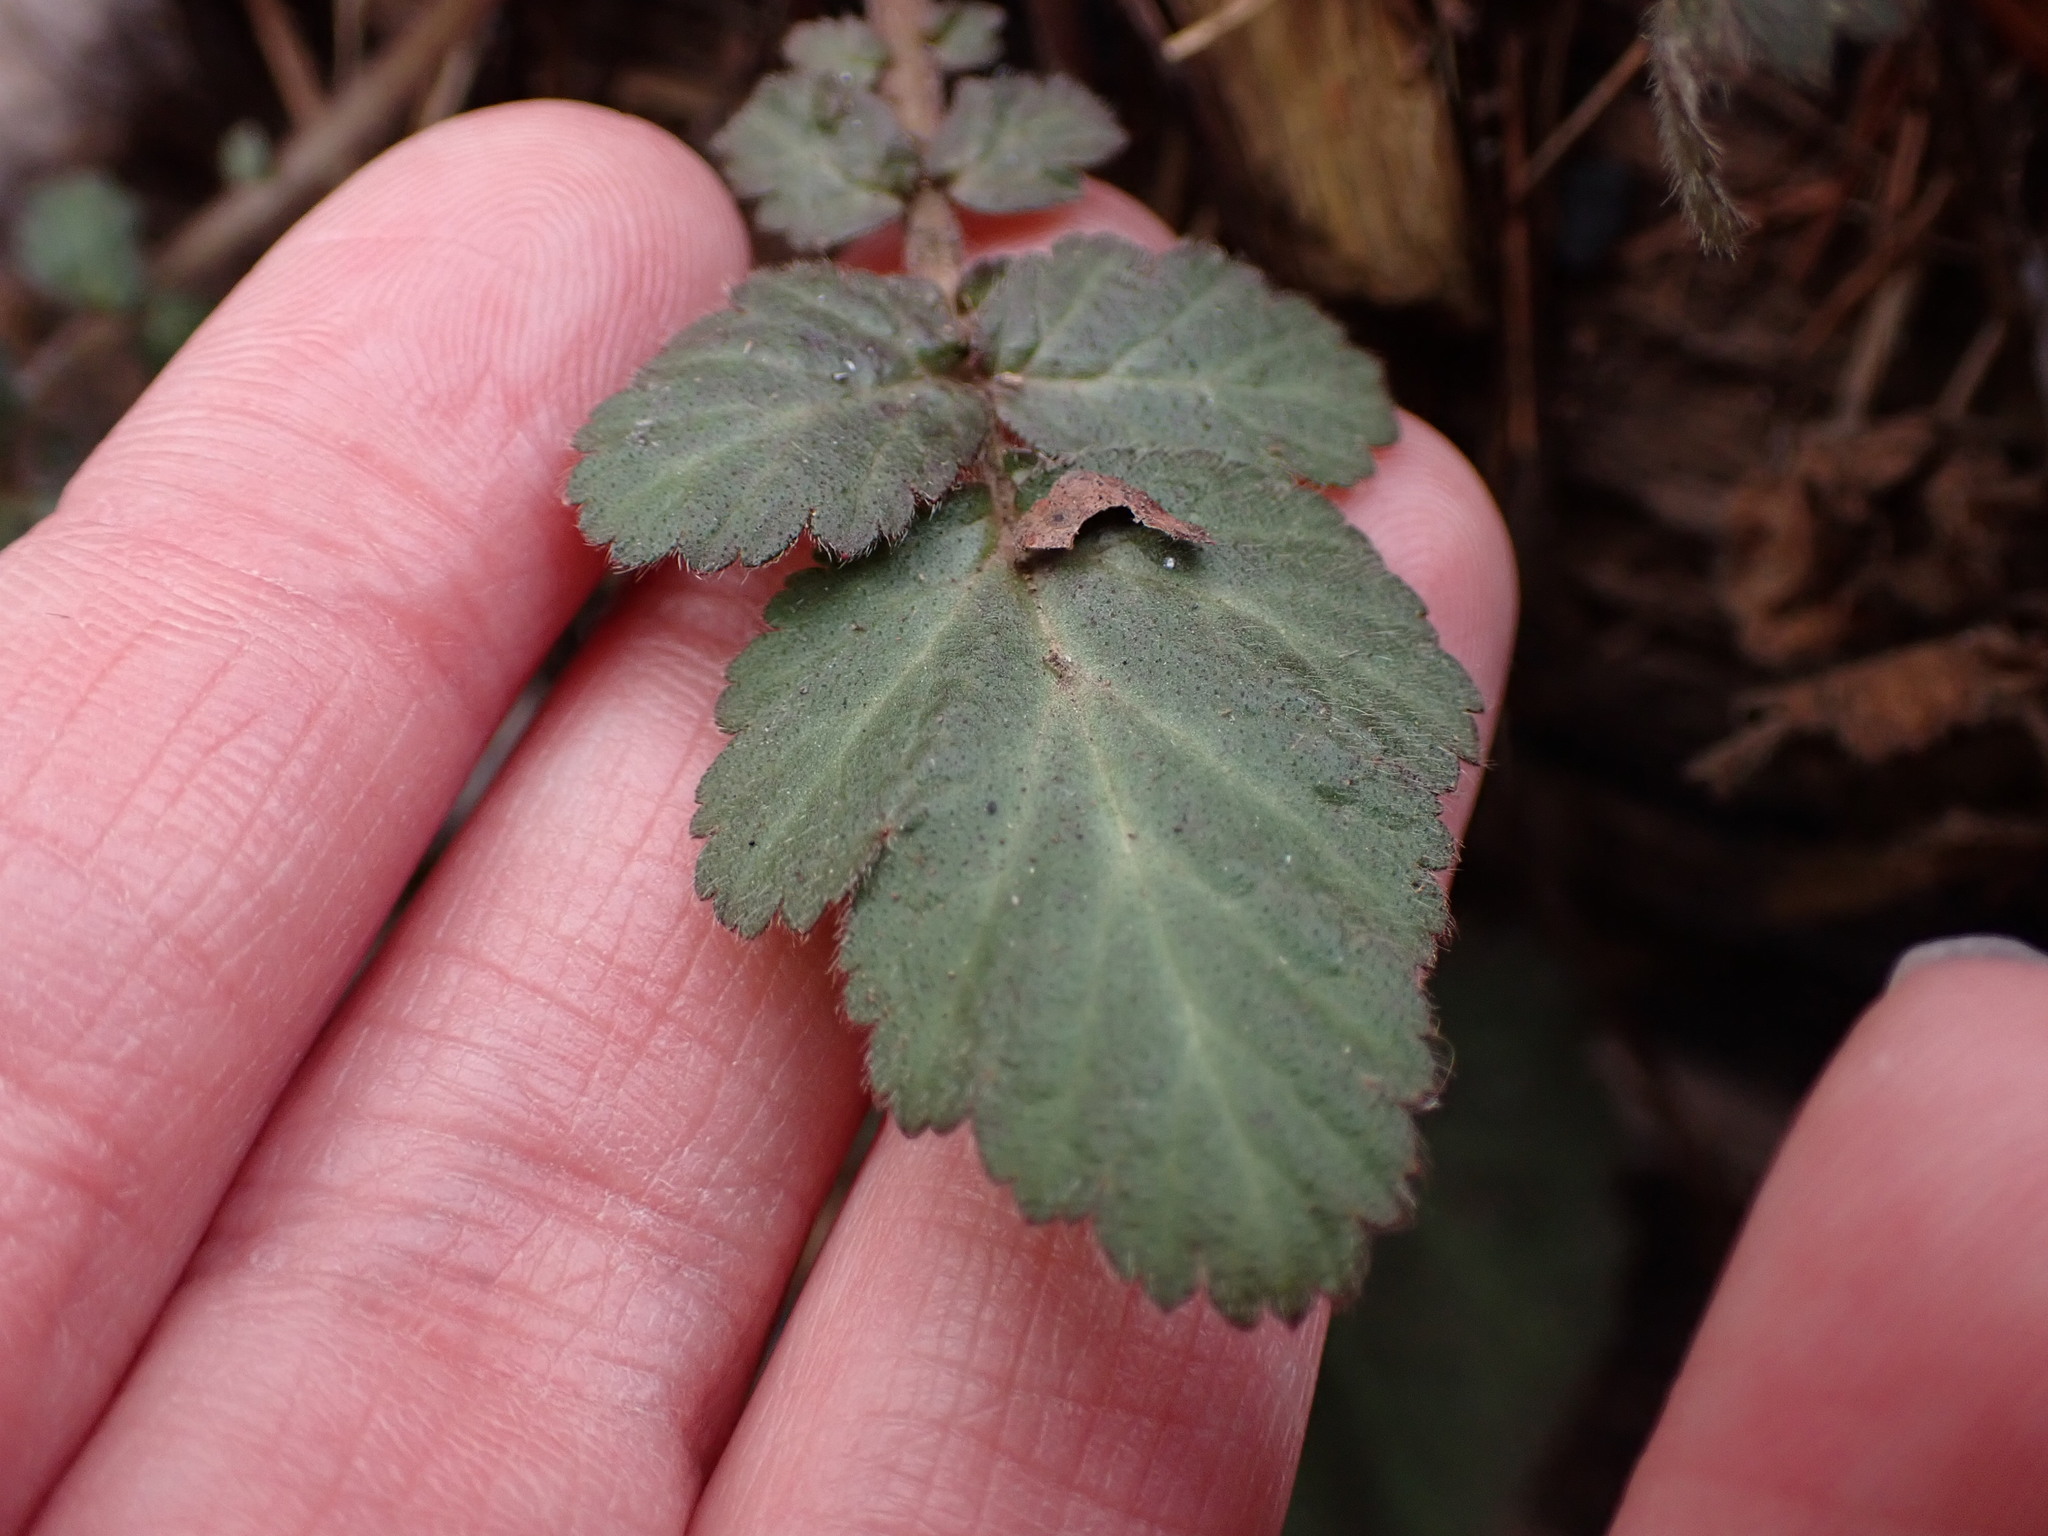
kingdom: Plantae
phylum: Tracheophyta
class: Magnoliopsida
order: Rosales
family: Rosaceae
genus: Geum
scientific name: Geum canadense
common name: White avens
